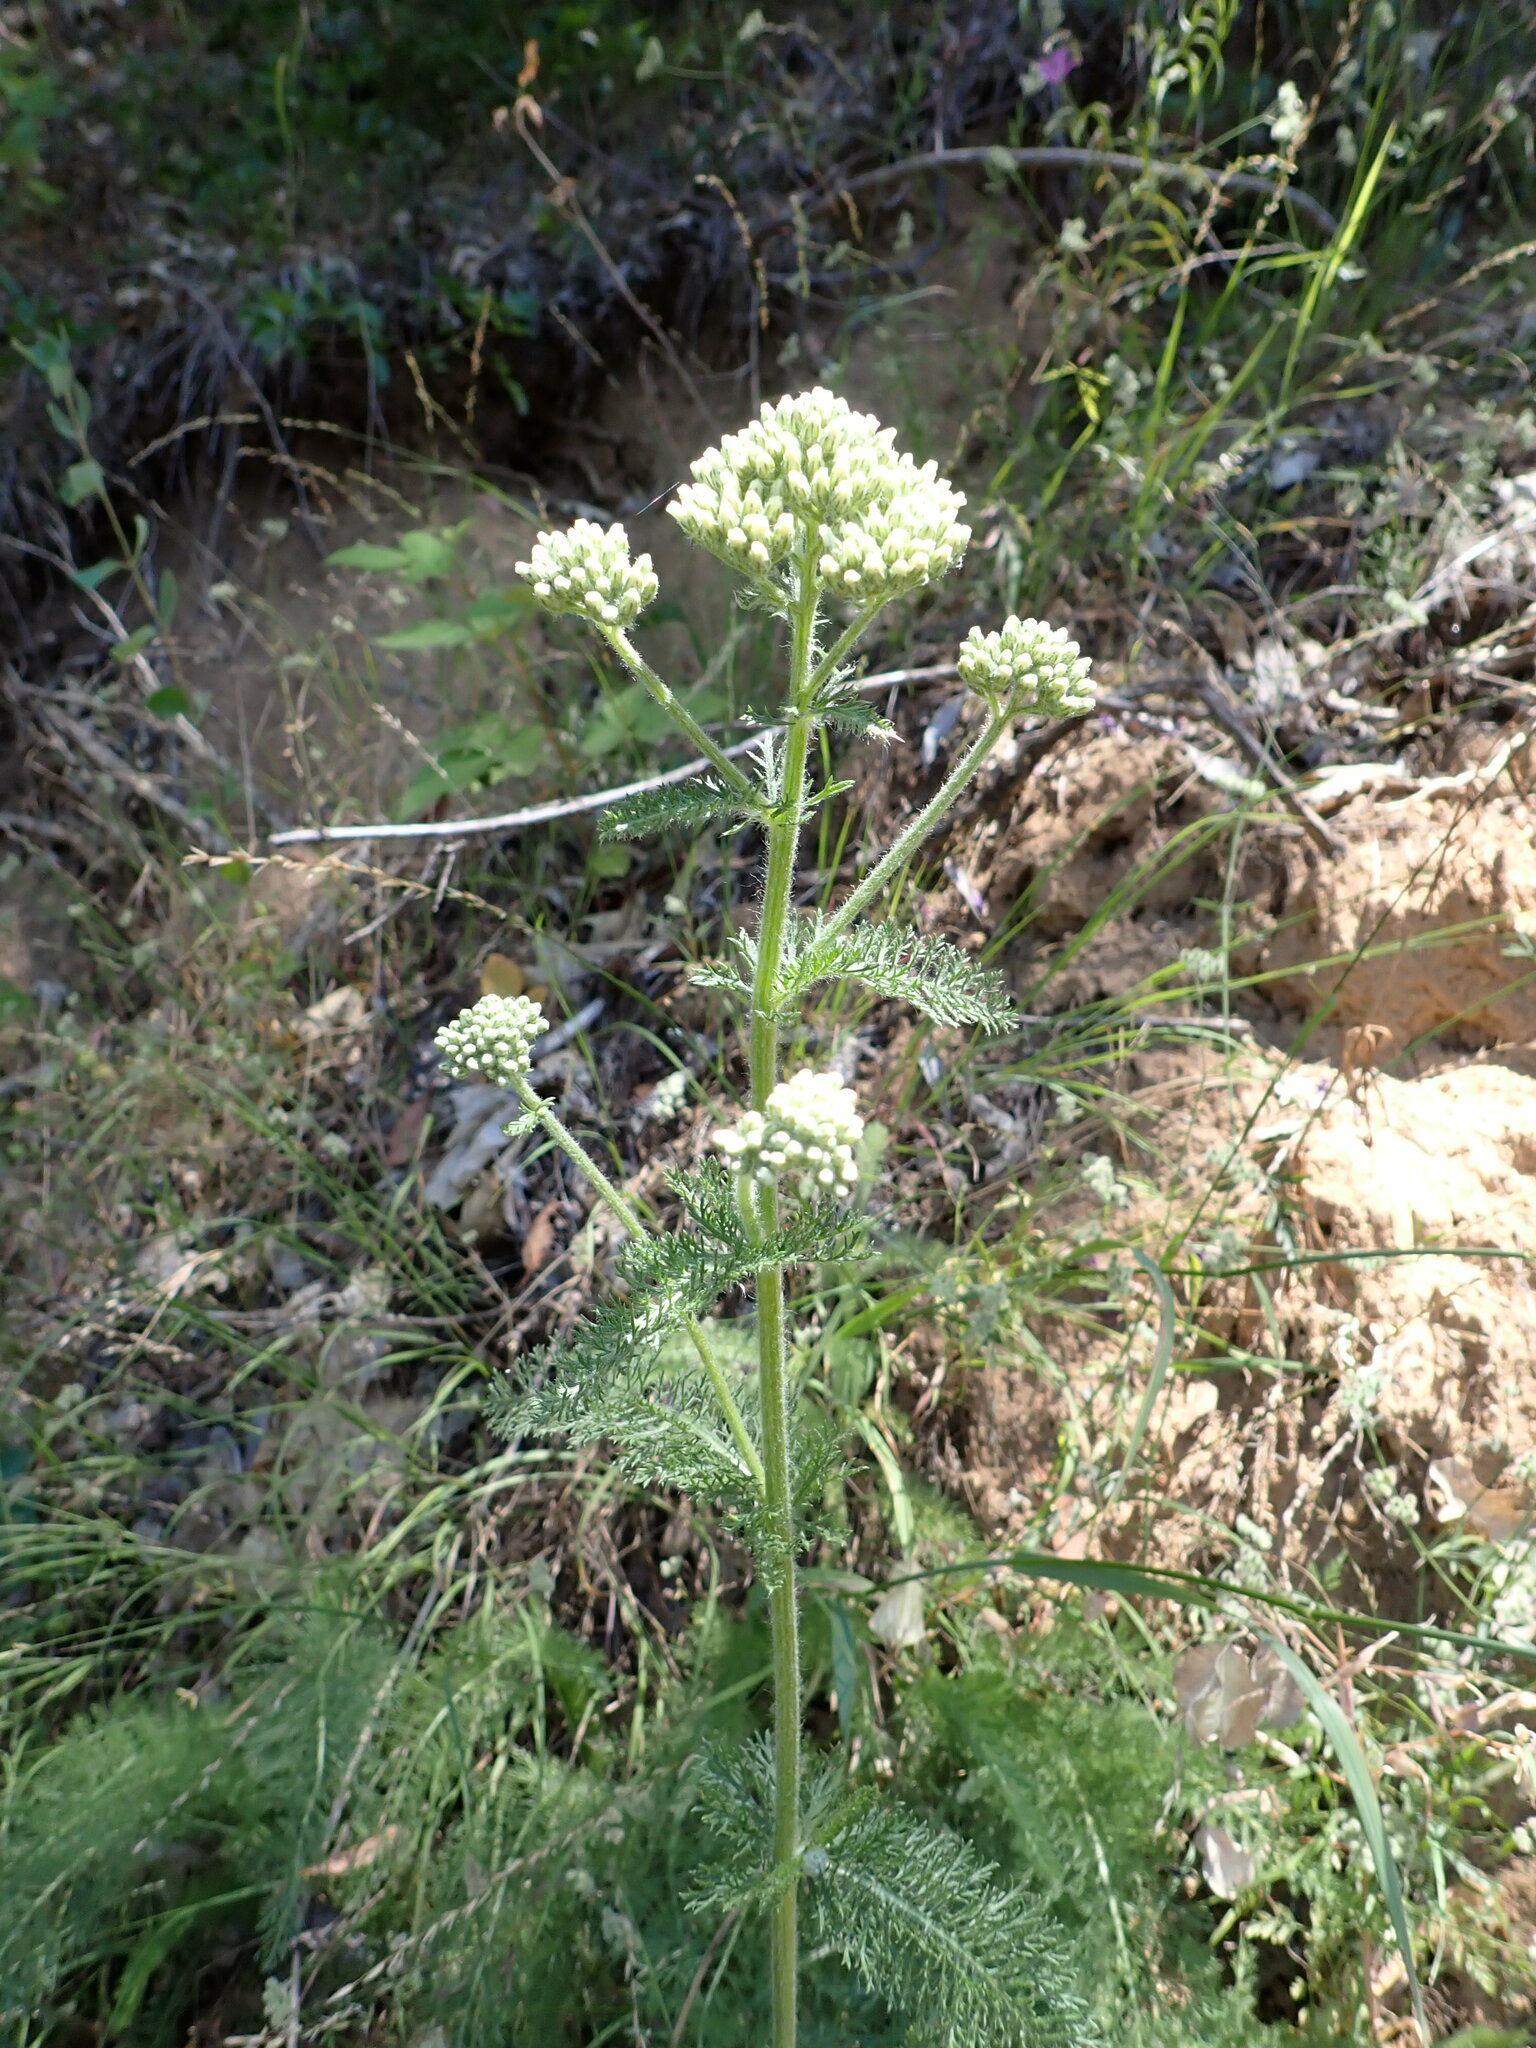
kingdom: Plantae
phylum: Tracheophyta
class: Magnoliopsida
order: Asterales
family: Asteraceae
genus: Achillea
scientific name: Achillea millefolium
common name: Yarrow
